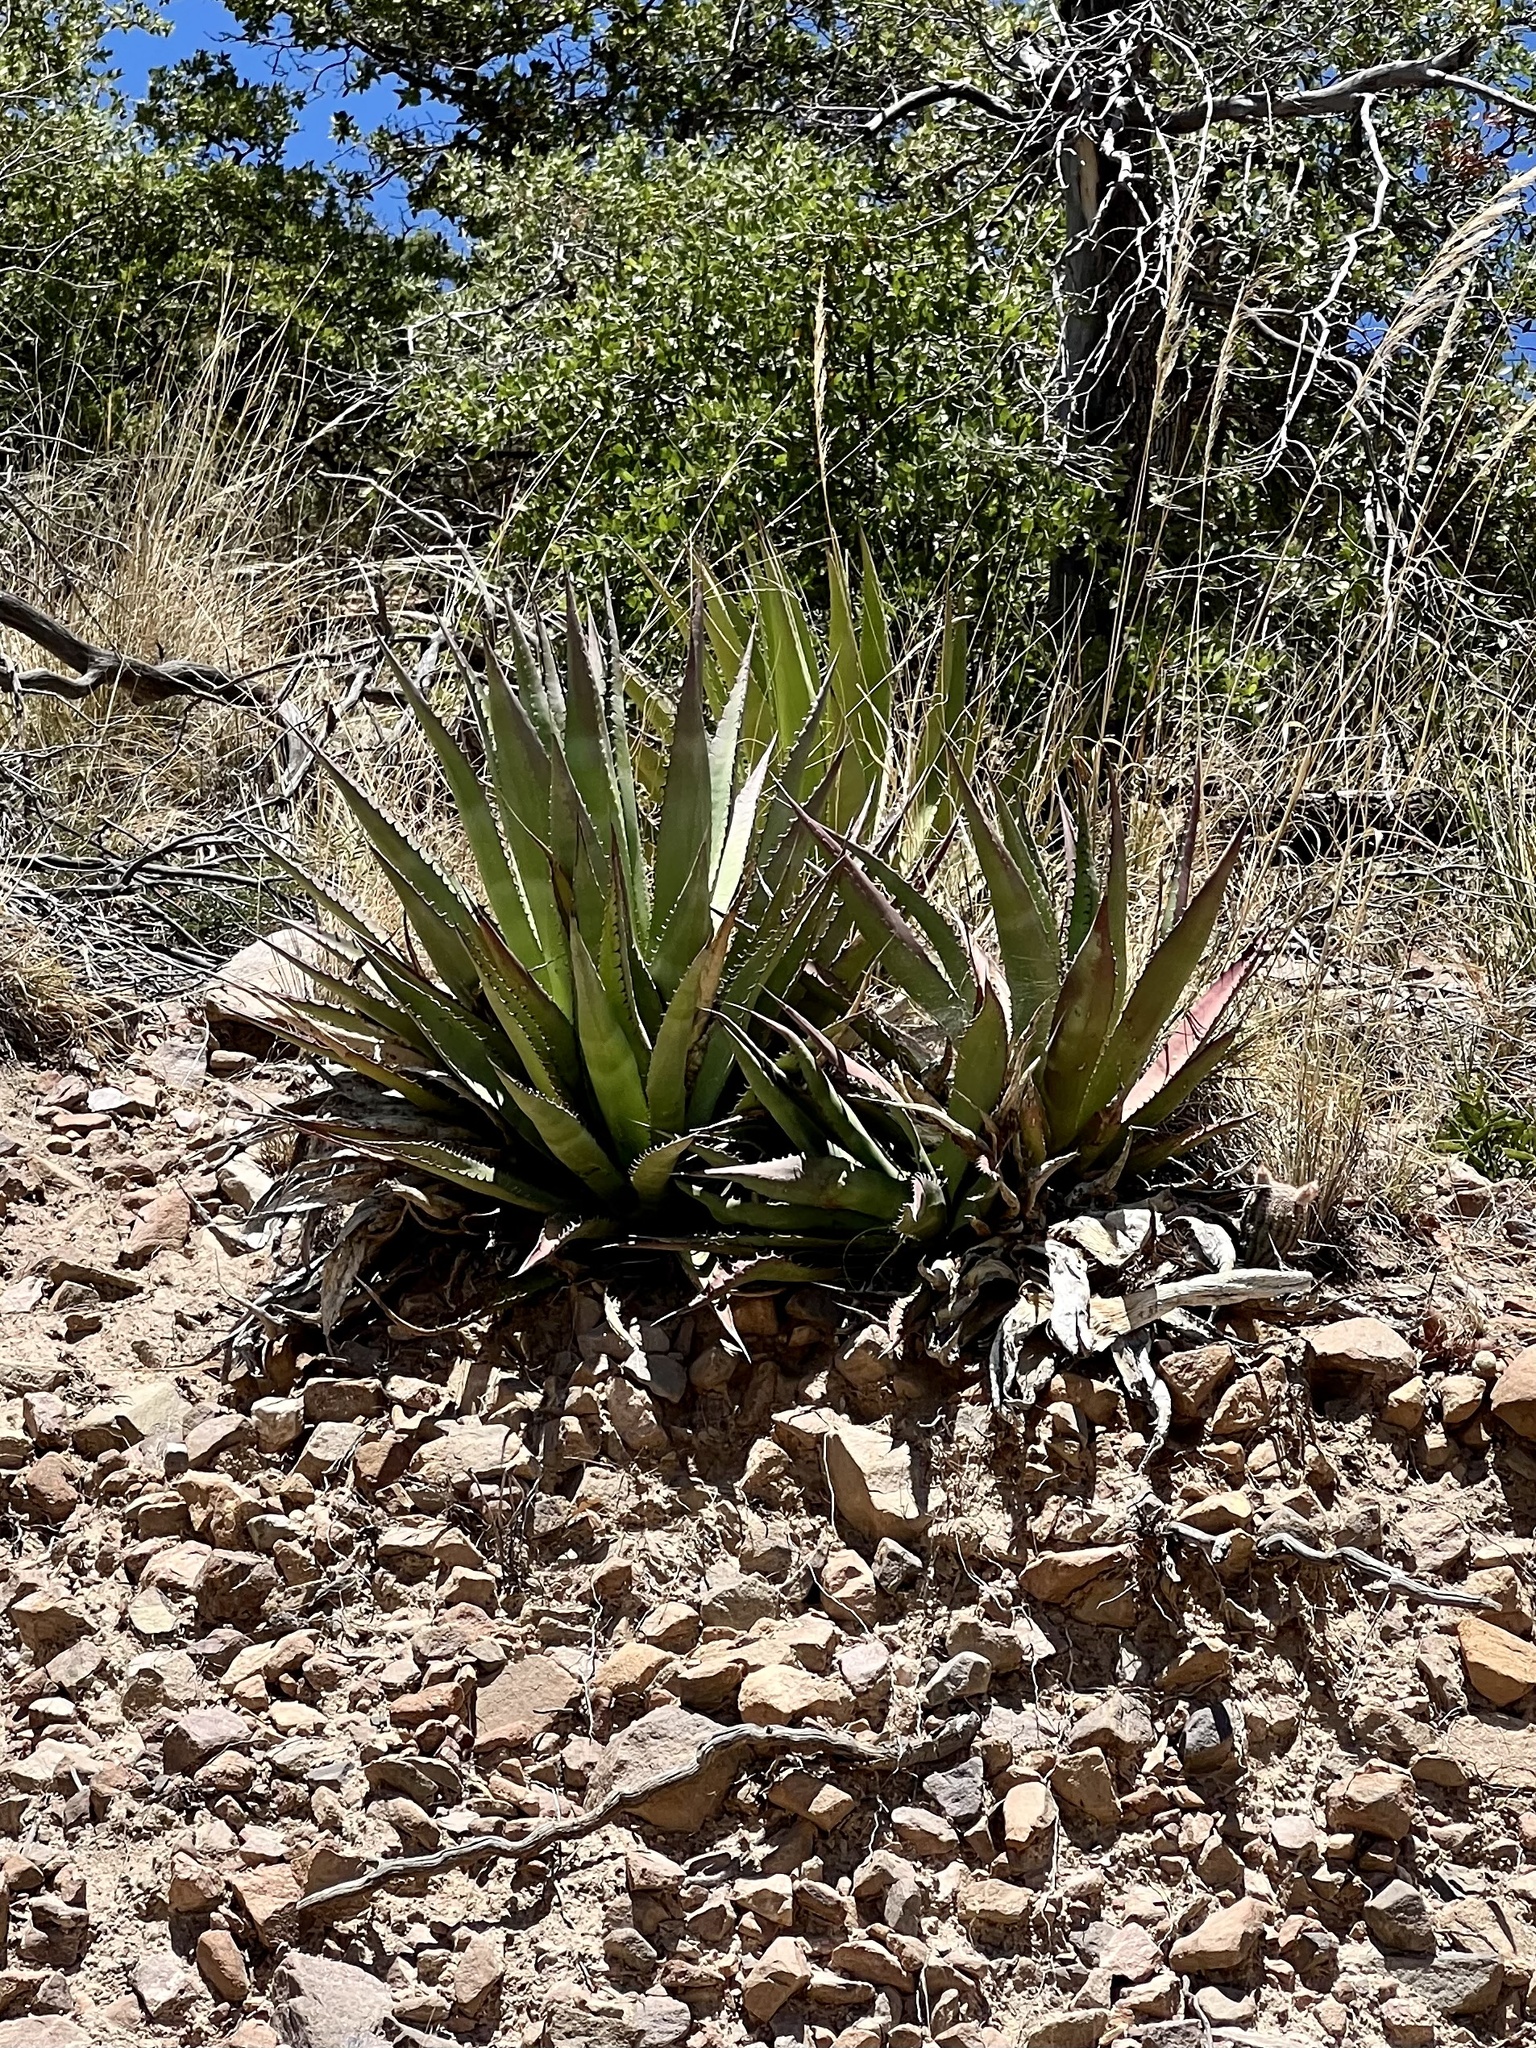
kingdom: Plantae
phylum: Tracheophyta
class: Liliopsida
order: Asparagales
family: Asparagaceae
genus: Agave
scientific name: Agave palmeri
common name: Palmer agave
